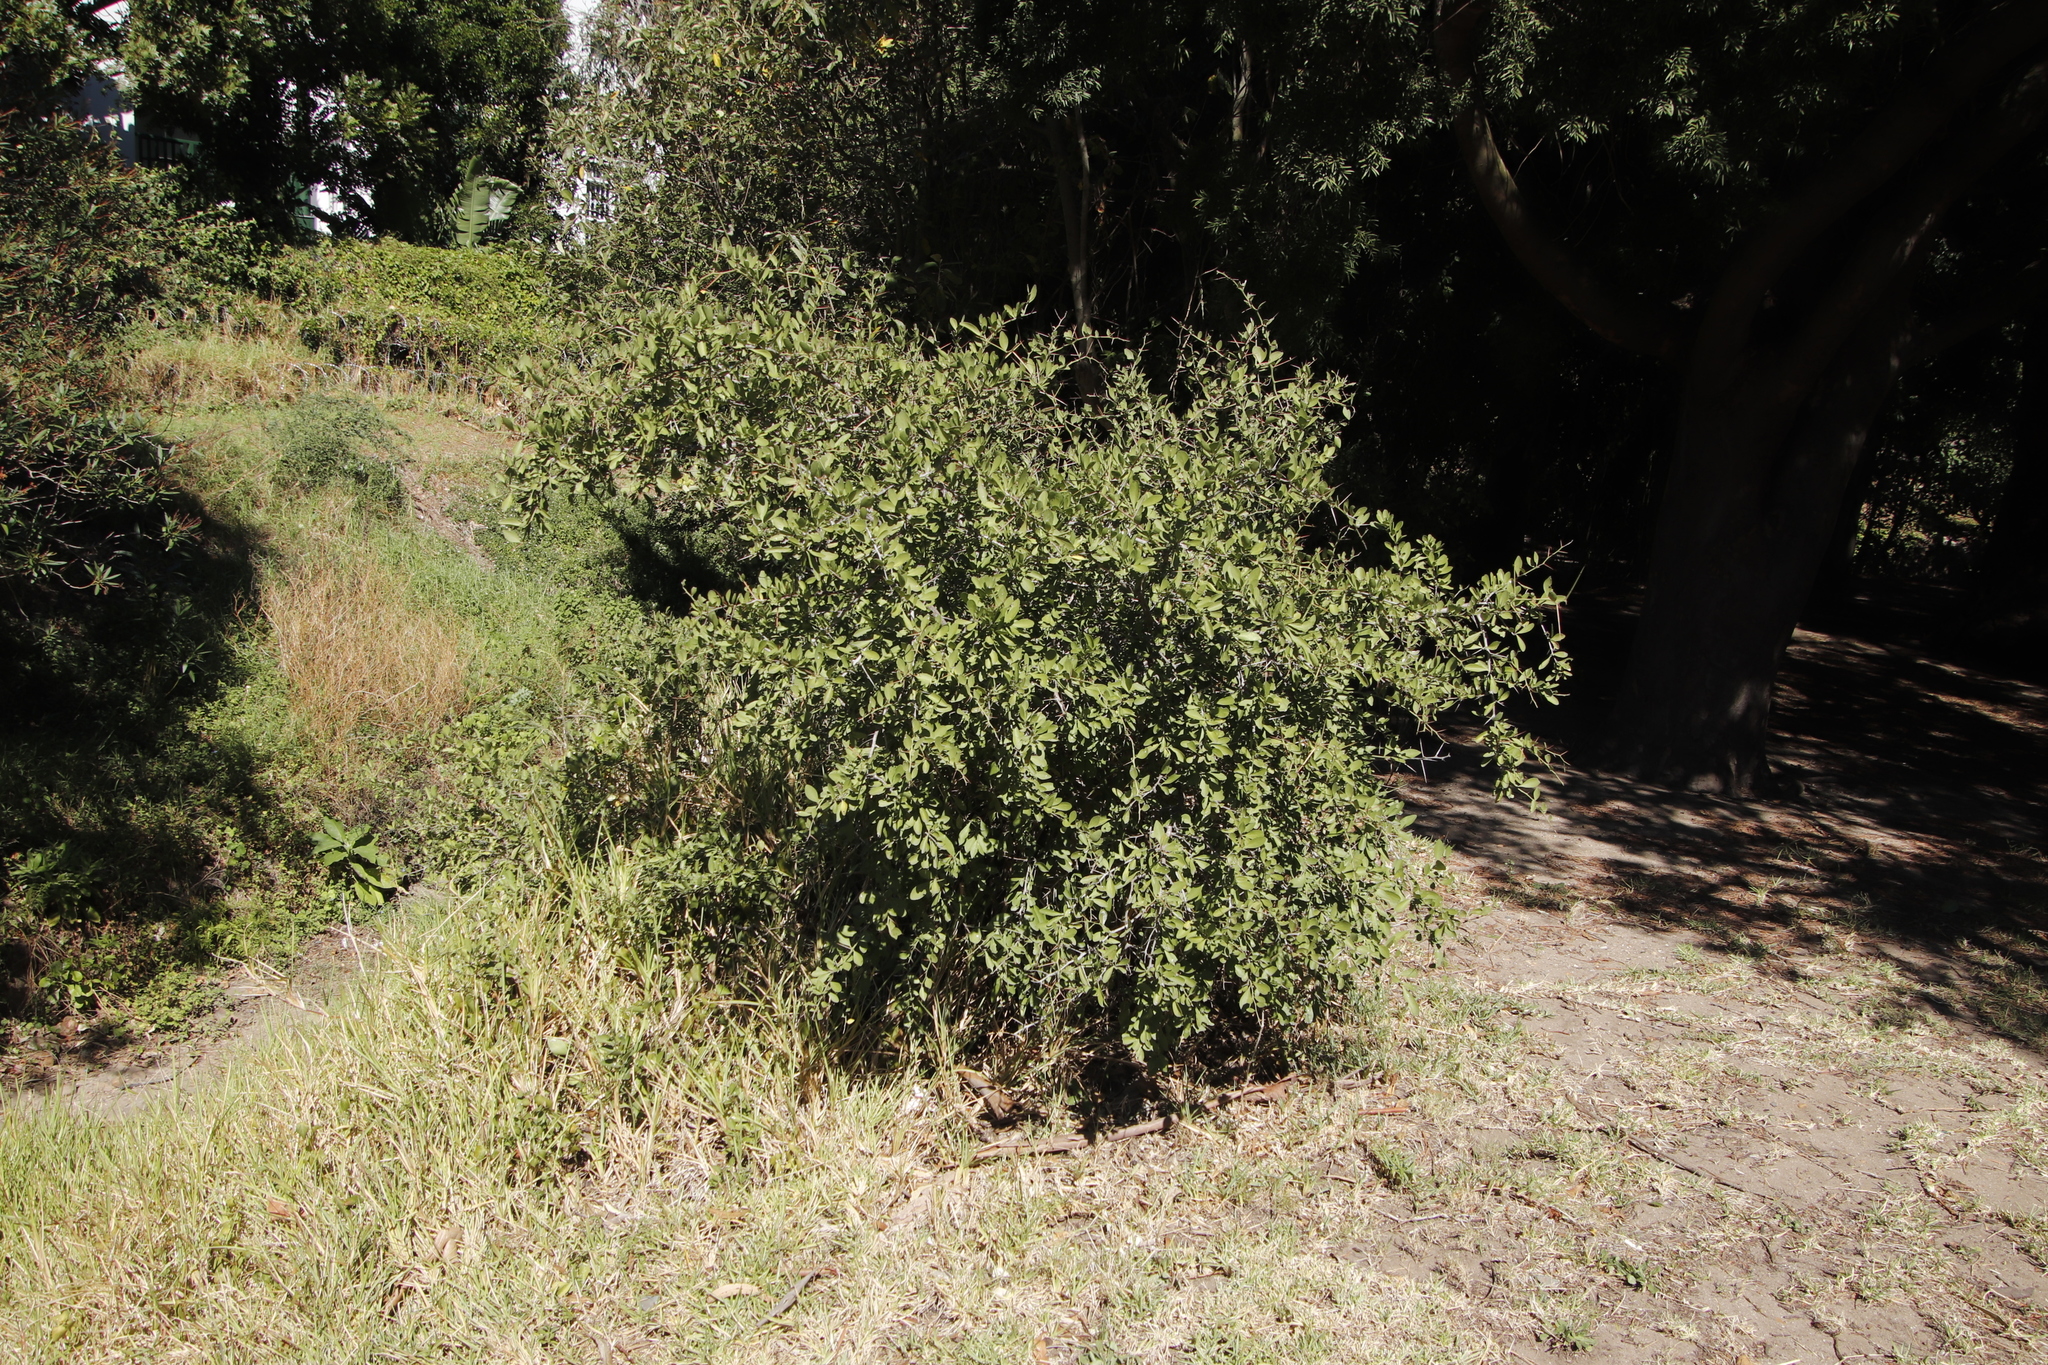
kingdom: Plantae
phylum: Tracheophyta
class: Magnoliopsida
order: Celastrales
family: Celastraceae
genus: Gymnosporia
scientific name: Gymnosporia buxifolia
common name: Common spike-thorn
